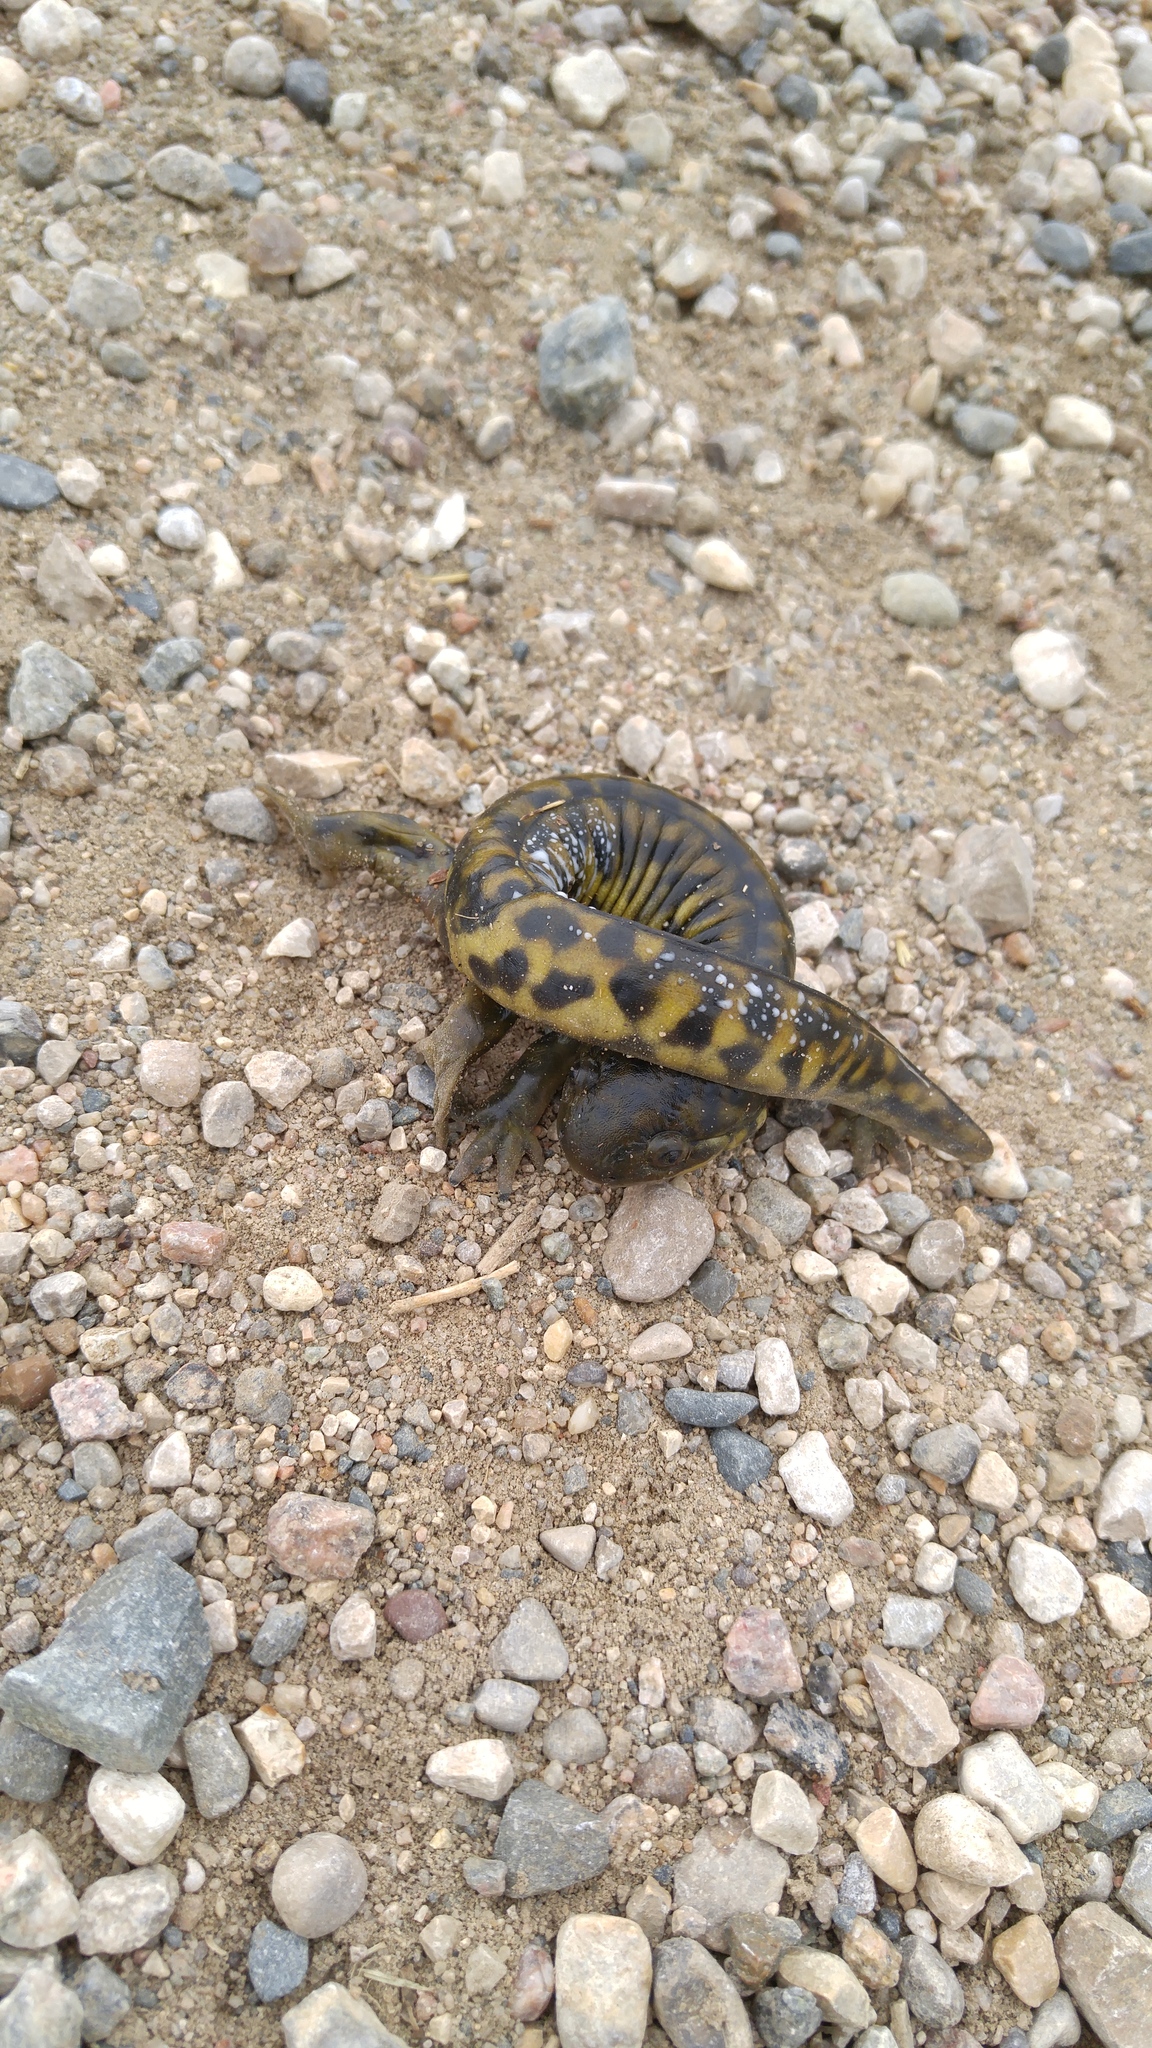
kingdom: Animalia
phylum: Chordata
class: Amphibia
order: Caudata
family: Ambystomatidae
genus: Ambystoma
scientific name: Ambystoma mavortium
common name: Western tiger salamander
